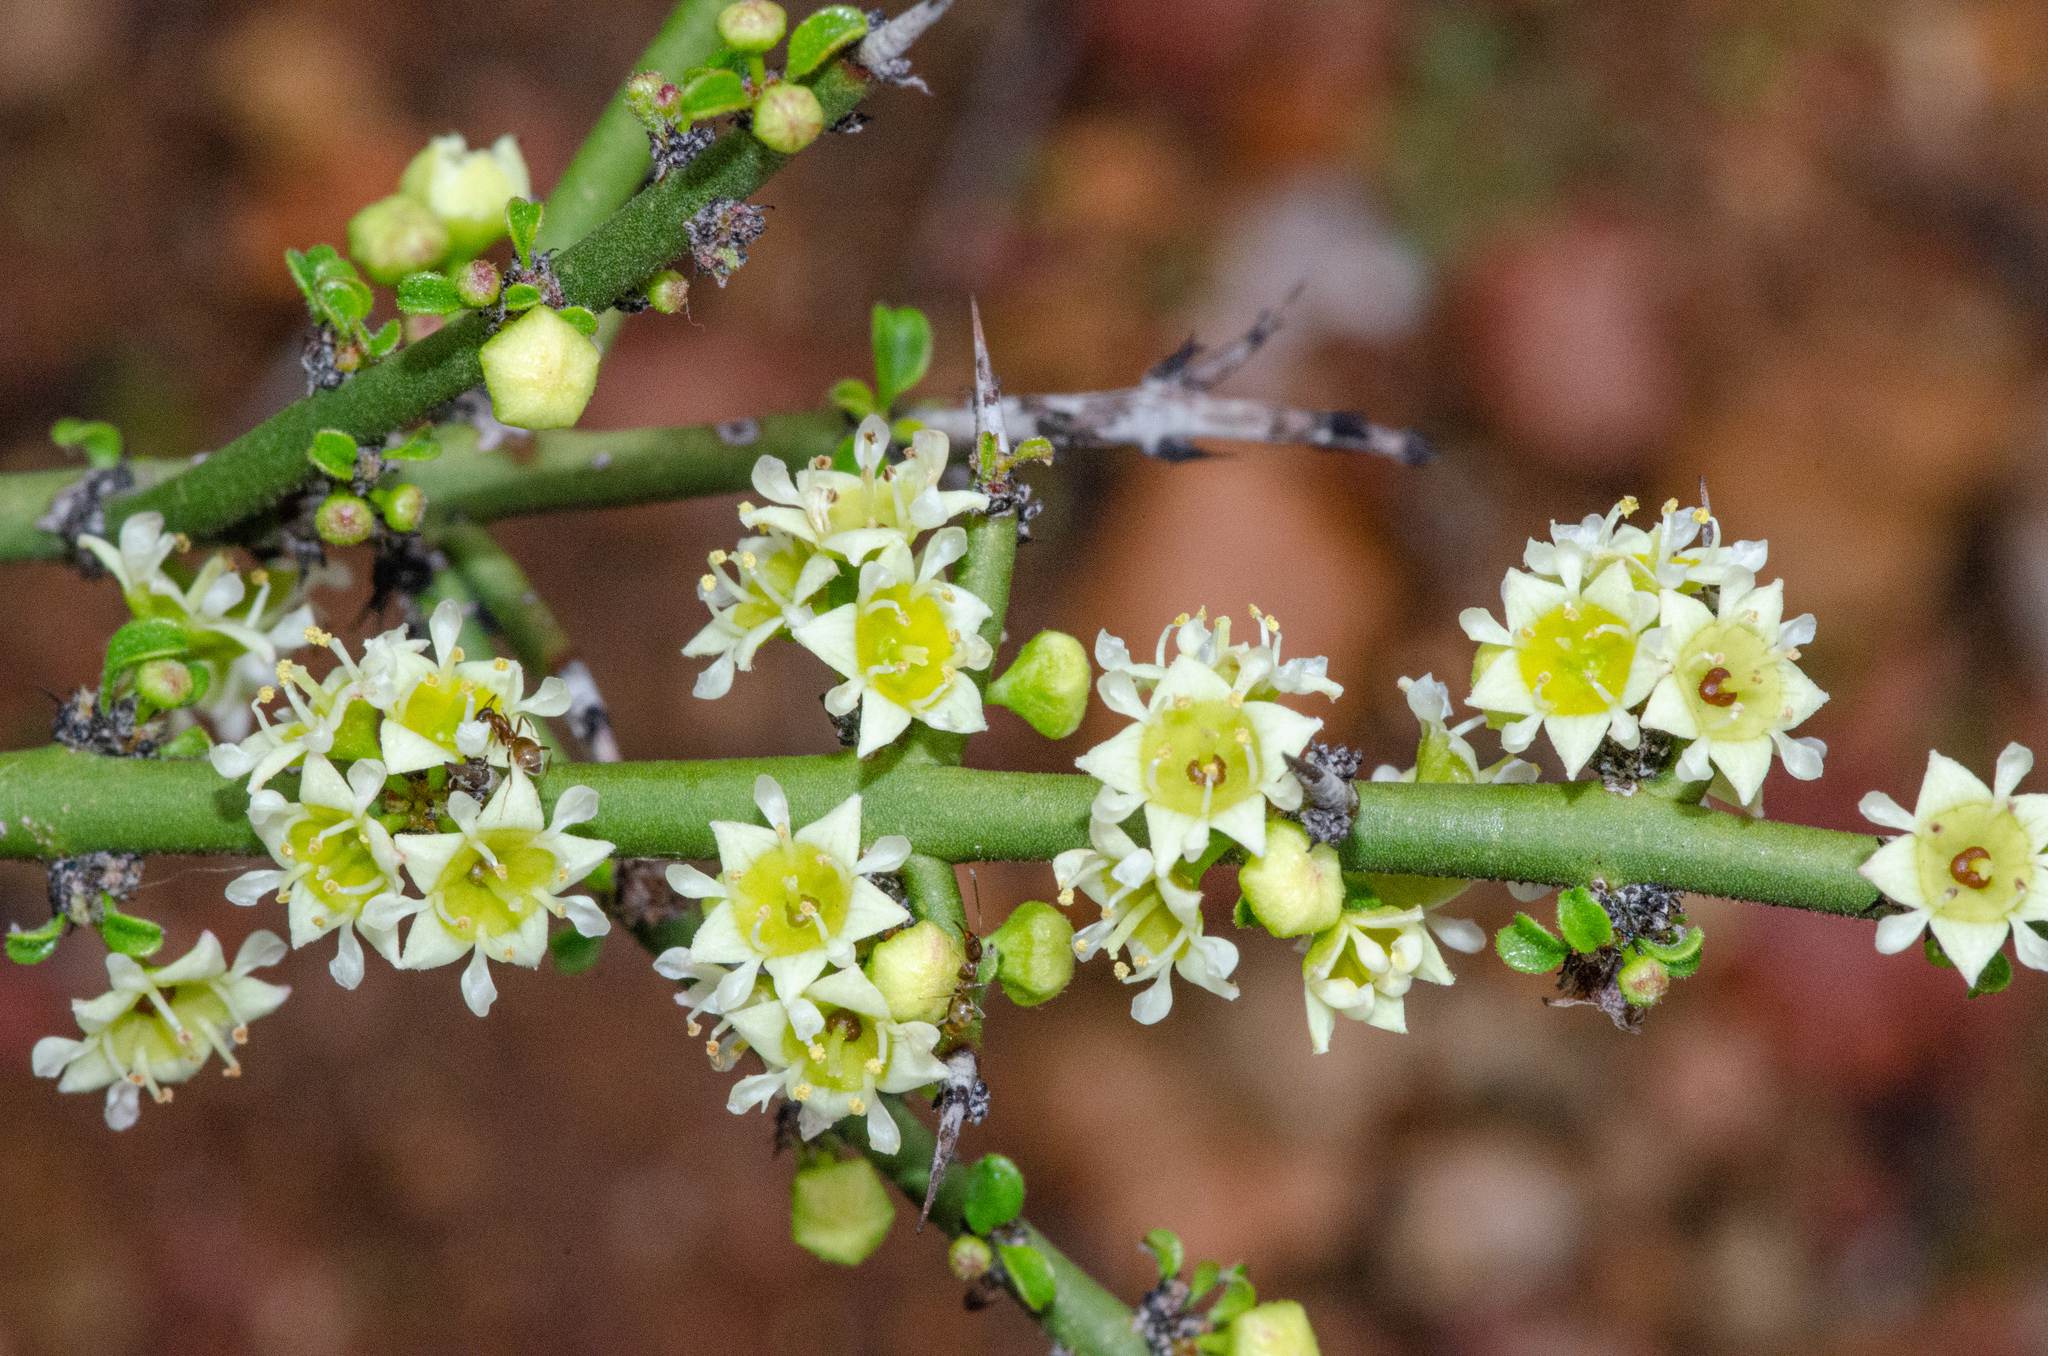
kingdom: Plantae
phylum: Tracheophyta
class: Magnoliopsida
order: Rosales
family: Rhamnaceae
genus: Adolphia
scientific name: Adolphia californica
